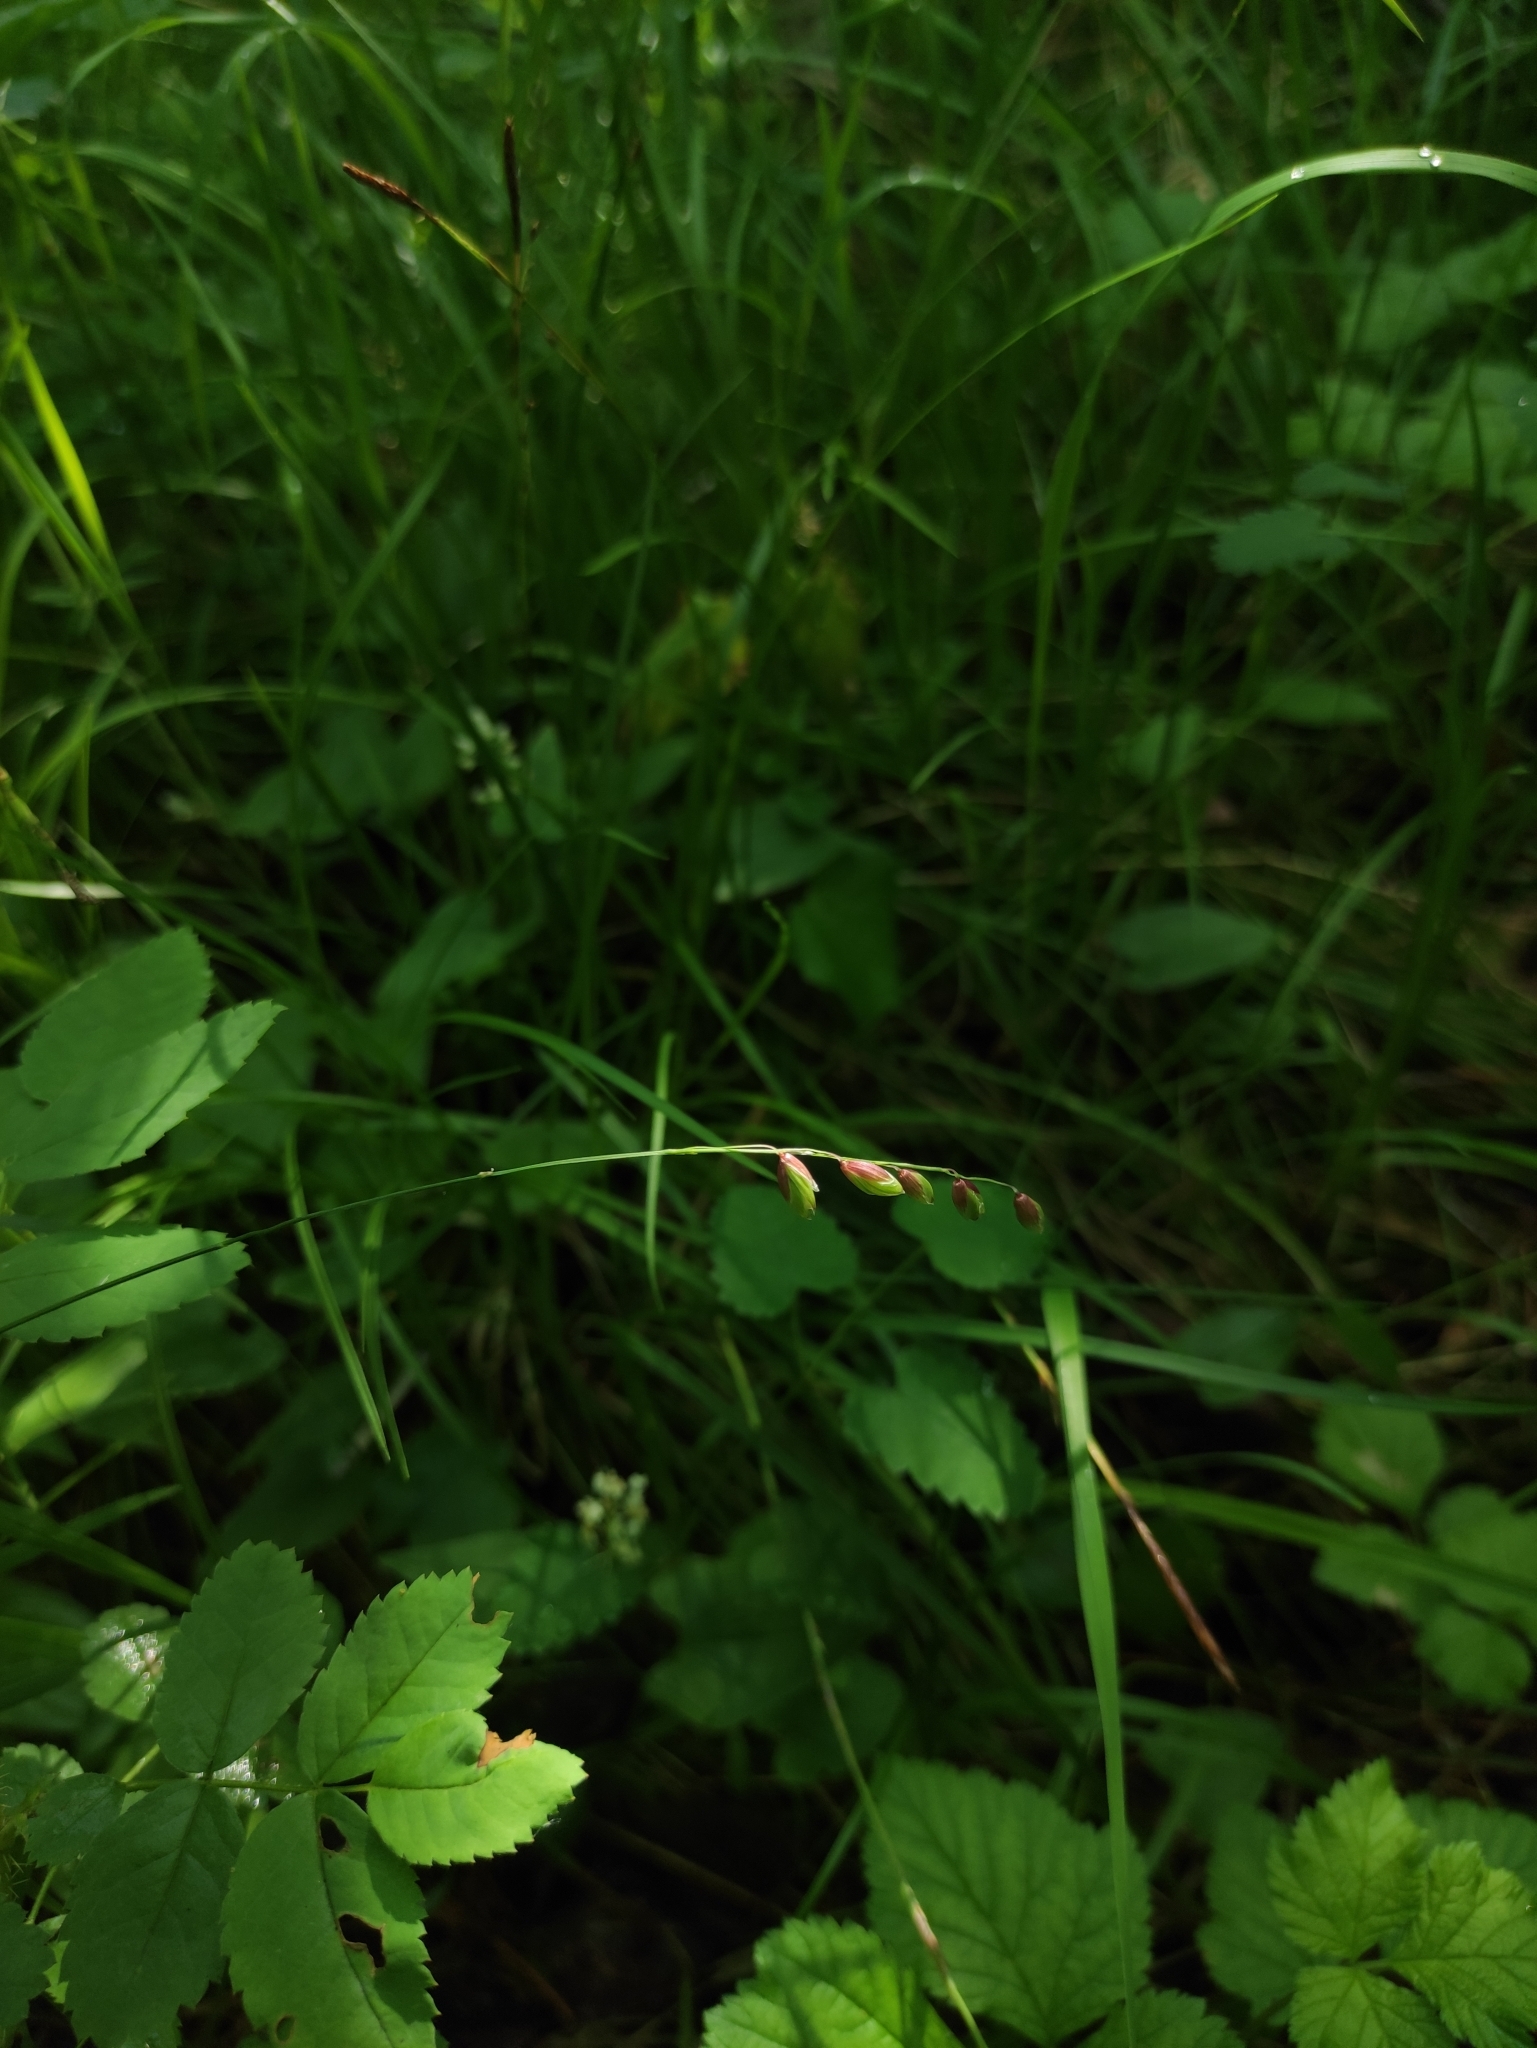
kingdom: Plantae
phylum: Tracheophyta
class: Liliopsida
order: Poales
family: Poaceae
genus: Melica
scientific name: Melica nutans
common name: Mountain melick
